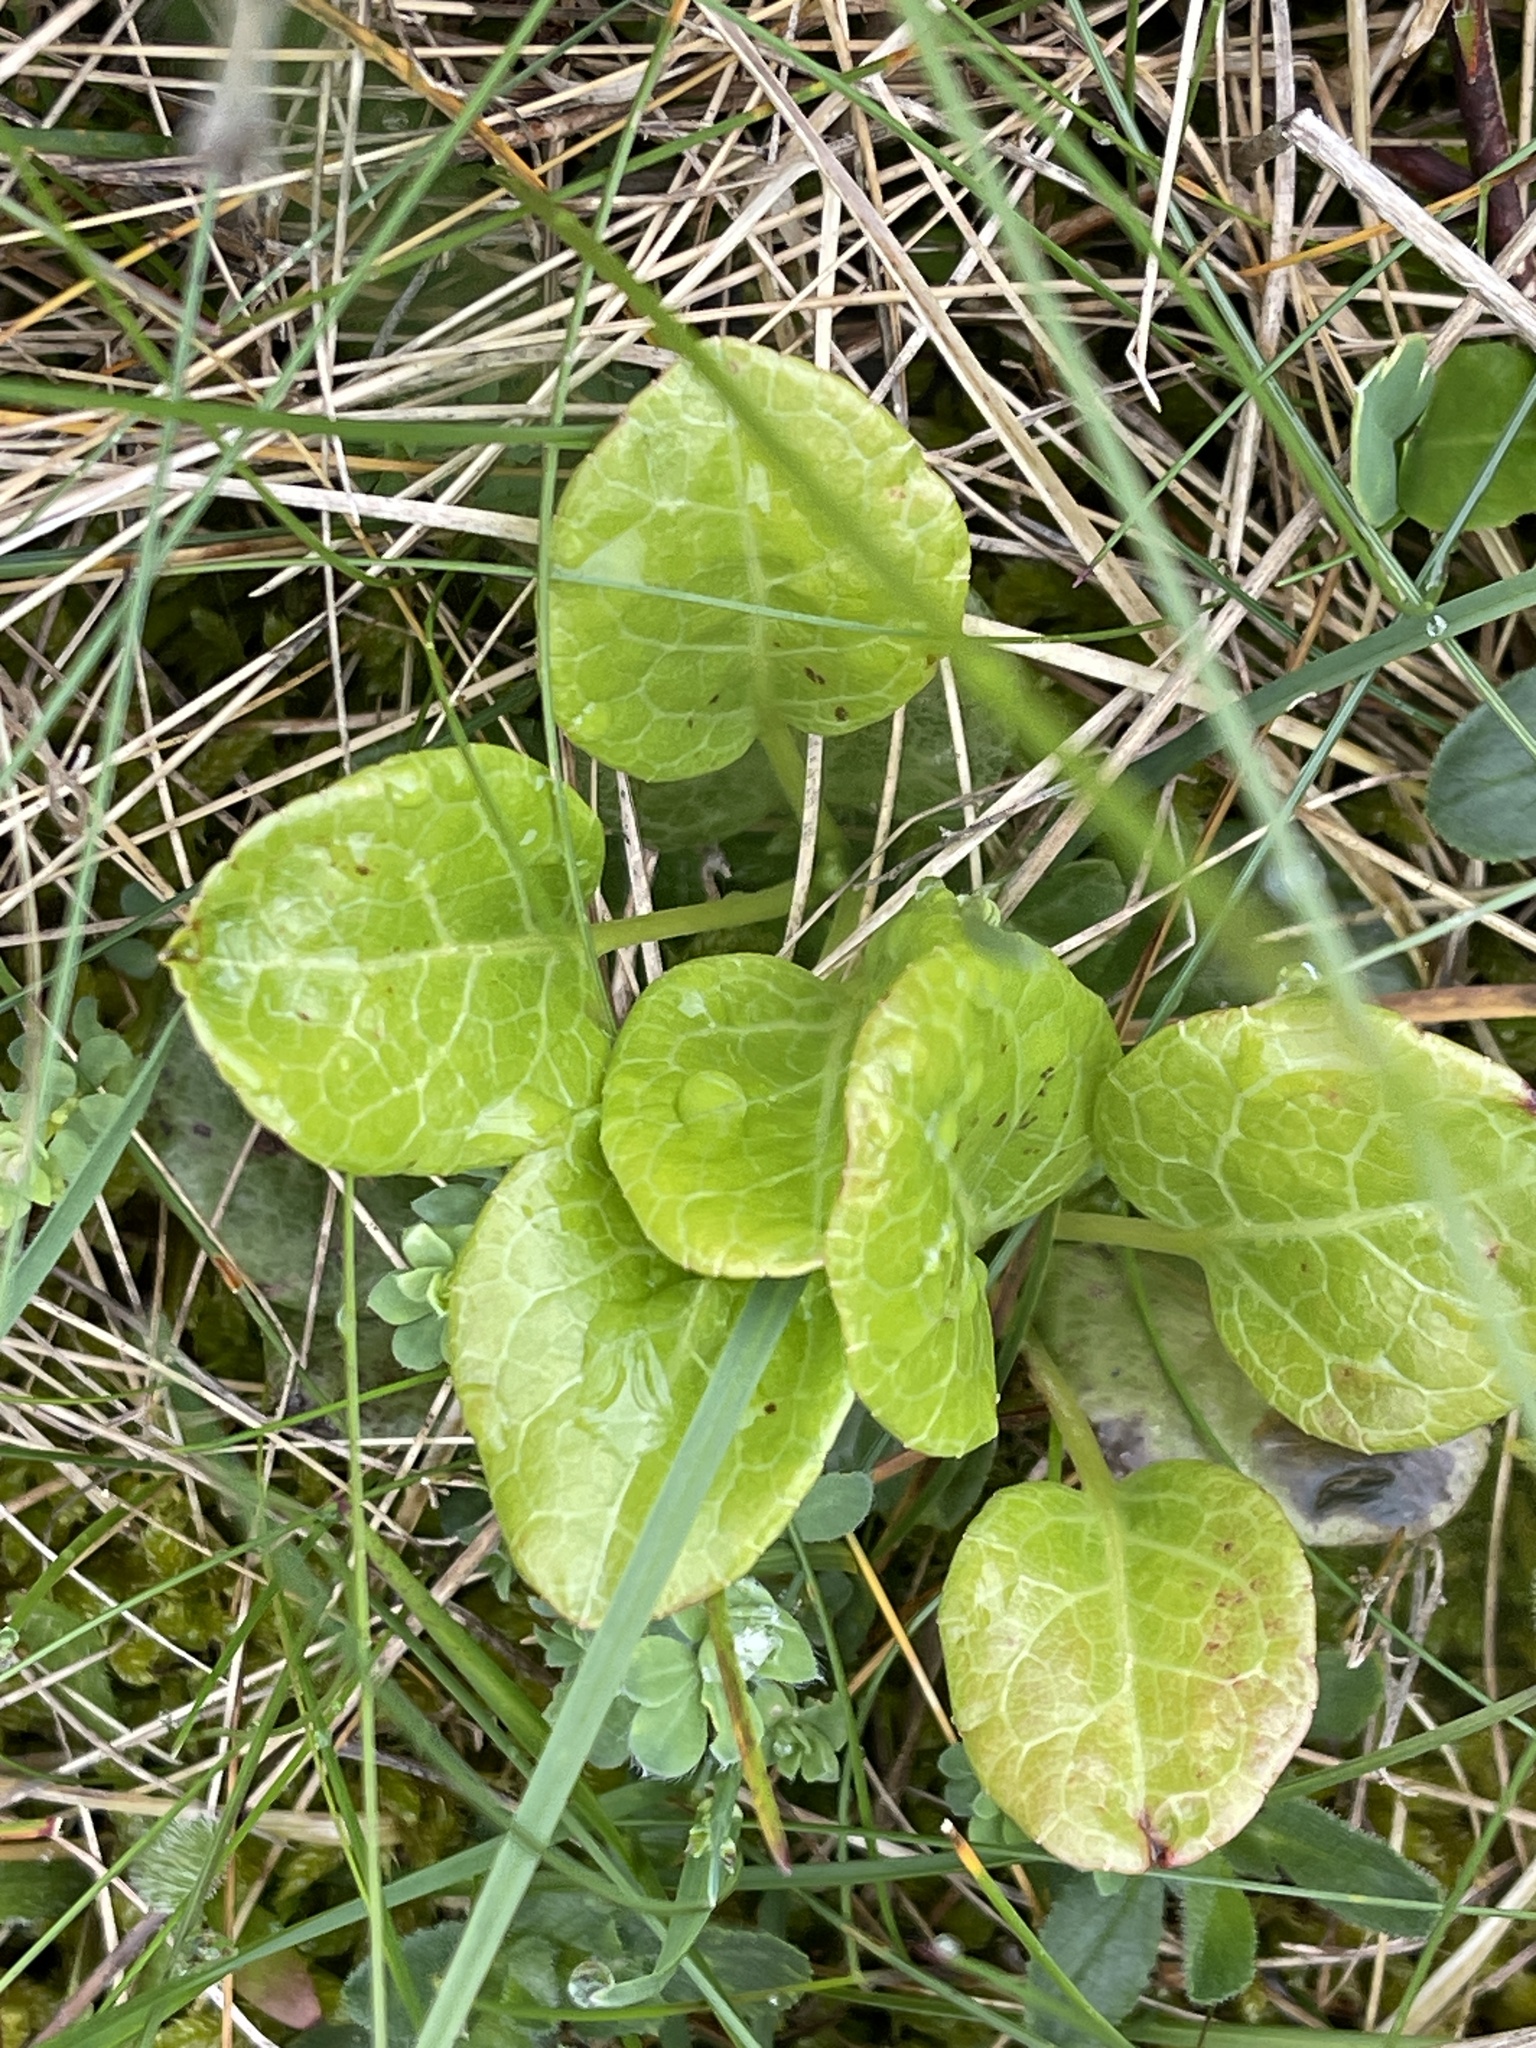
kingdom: Plantae
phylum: Tracheophyta
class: Magnoliopsida
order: Ericales
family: Ericaceae
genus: Pyrola
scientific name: Pyrola rotundifolia
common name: Round-leaved wintergreen
